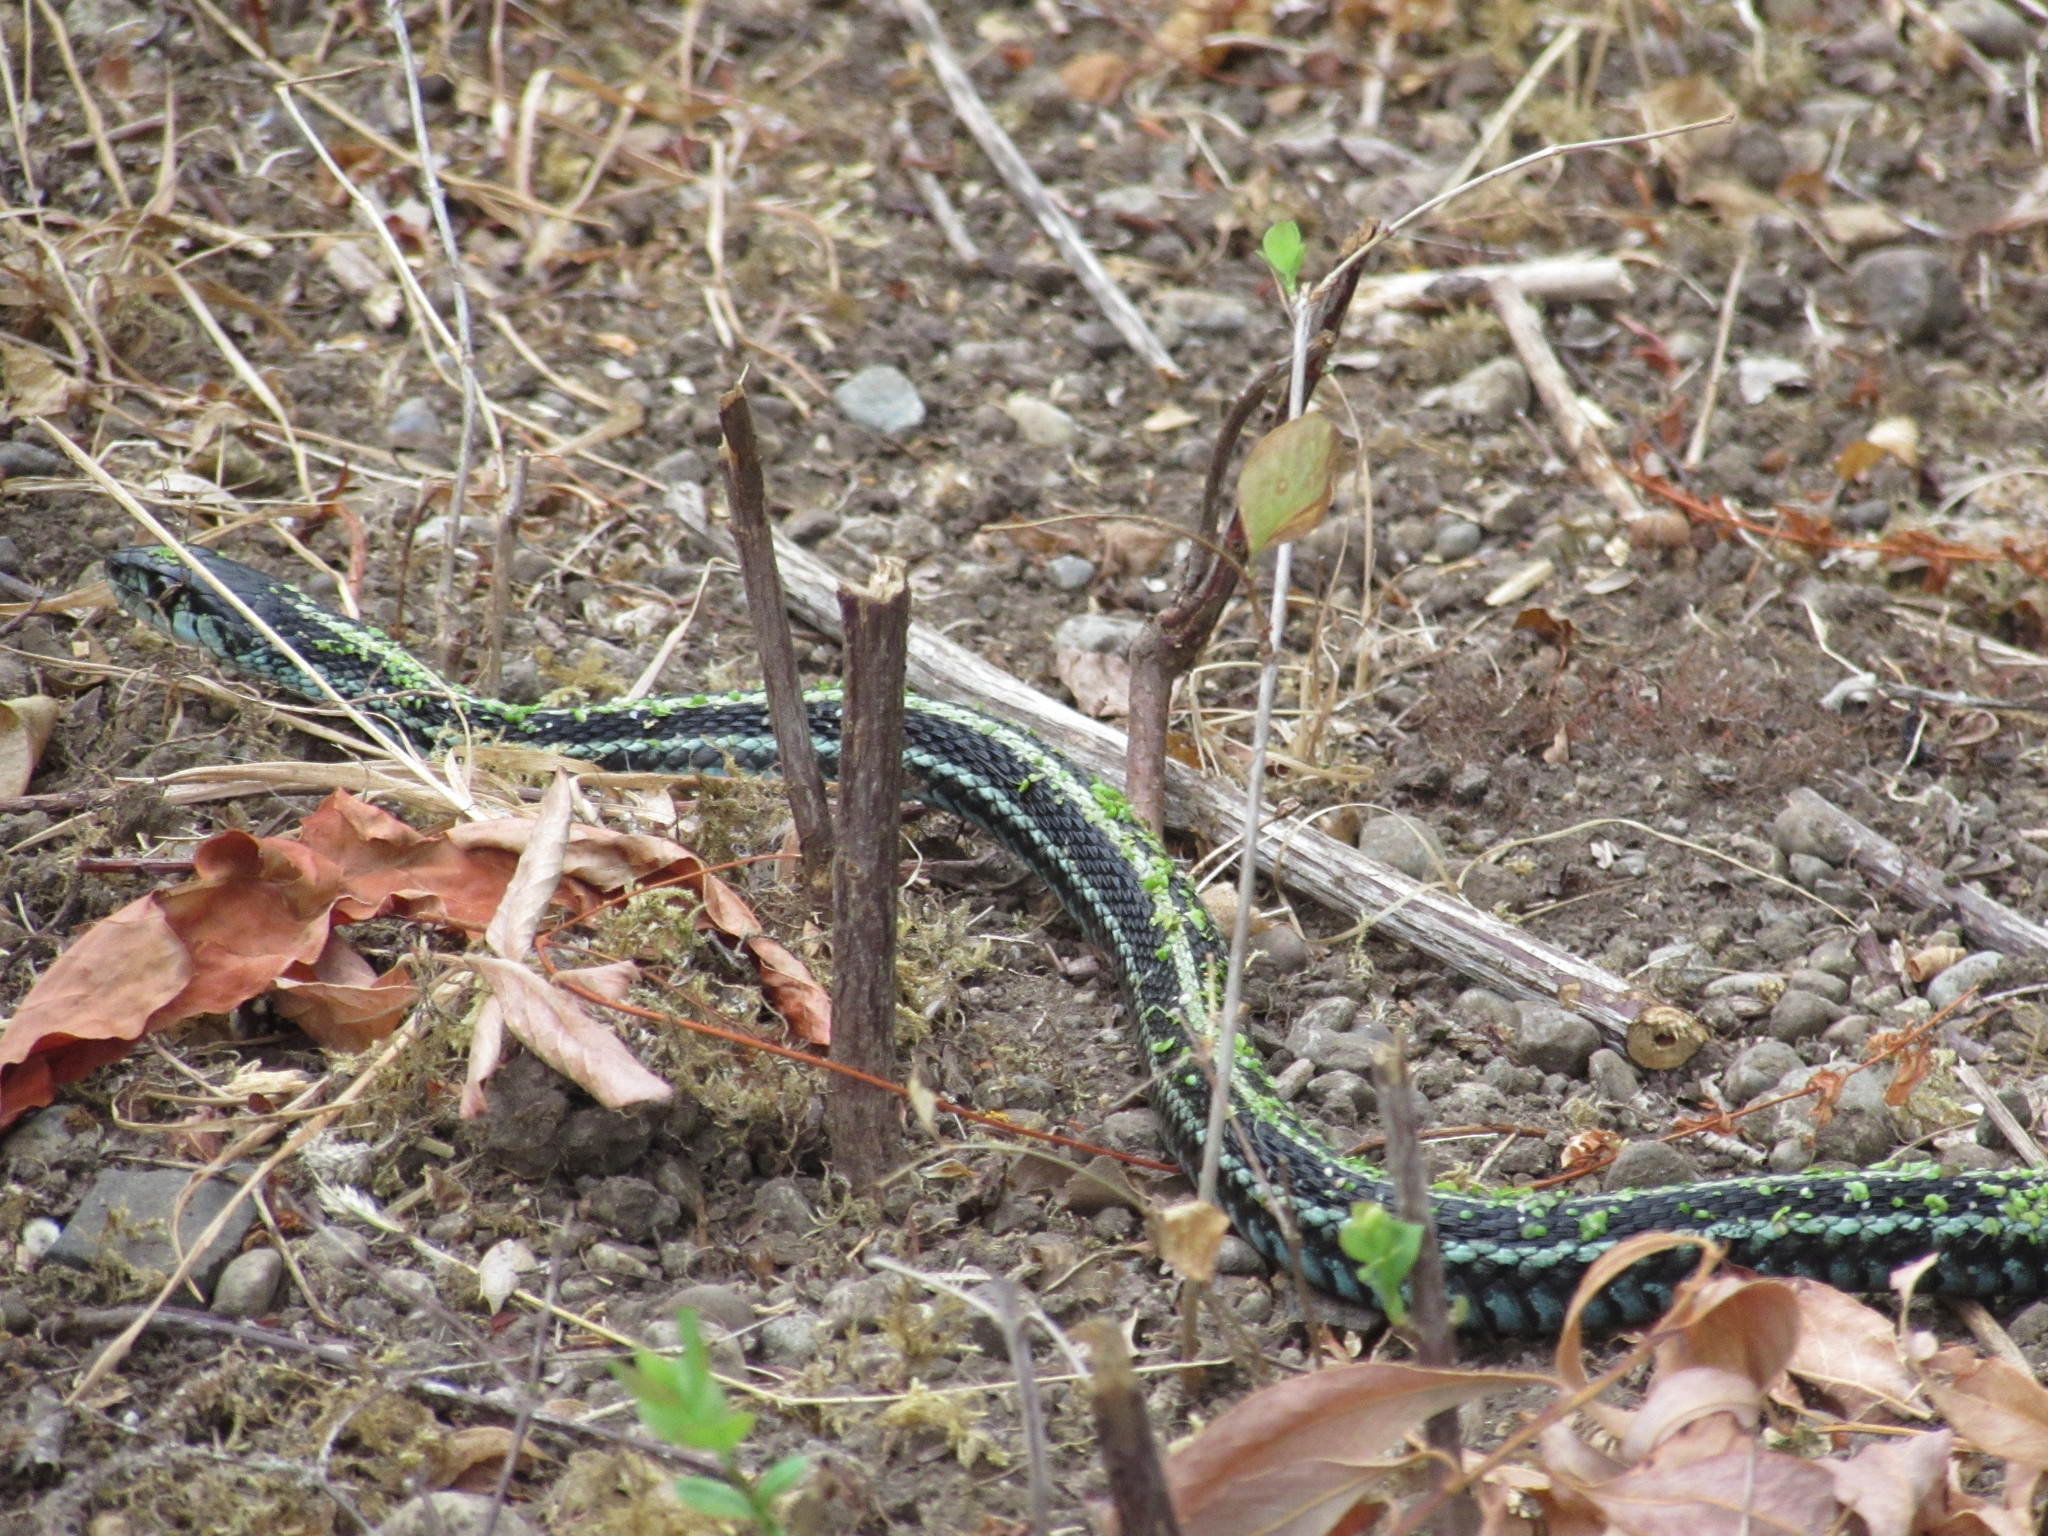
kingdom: Animalia
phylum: Chordata
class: Squamata
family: Colubridae
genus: Thamnophis
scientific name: Thamnophis sirtalis
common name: Common garter snake
